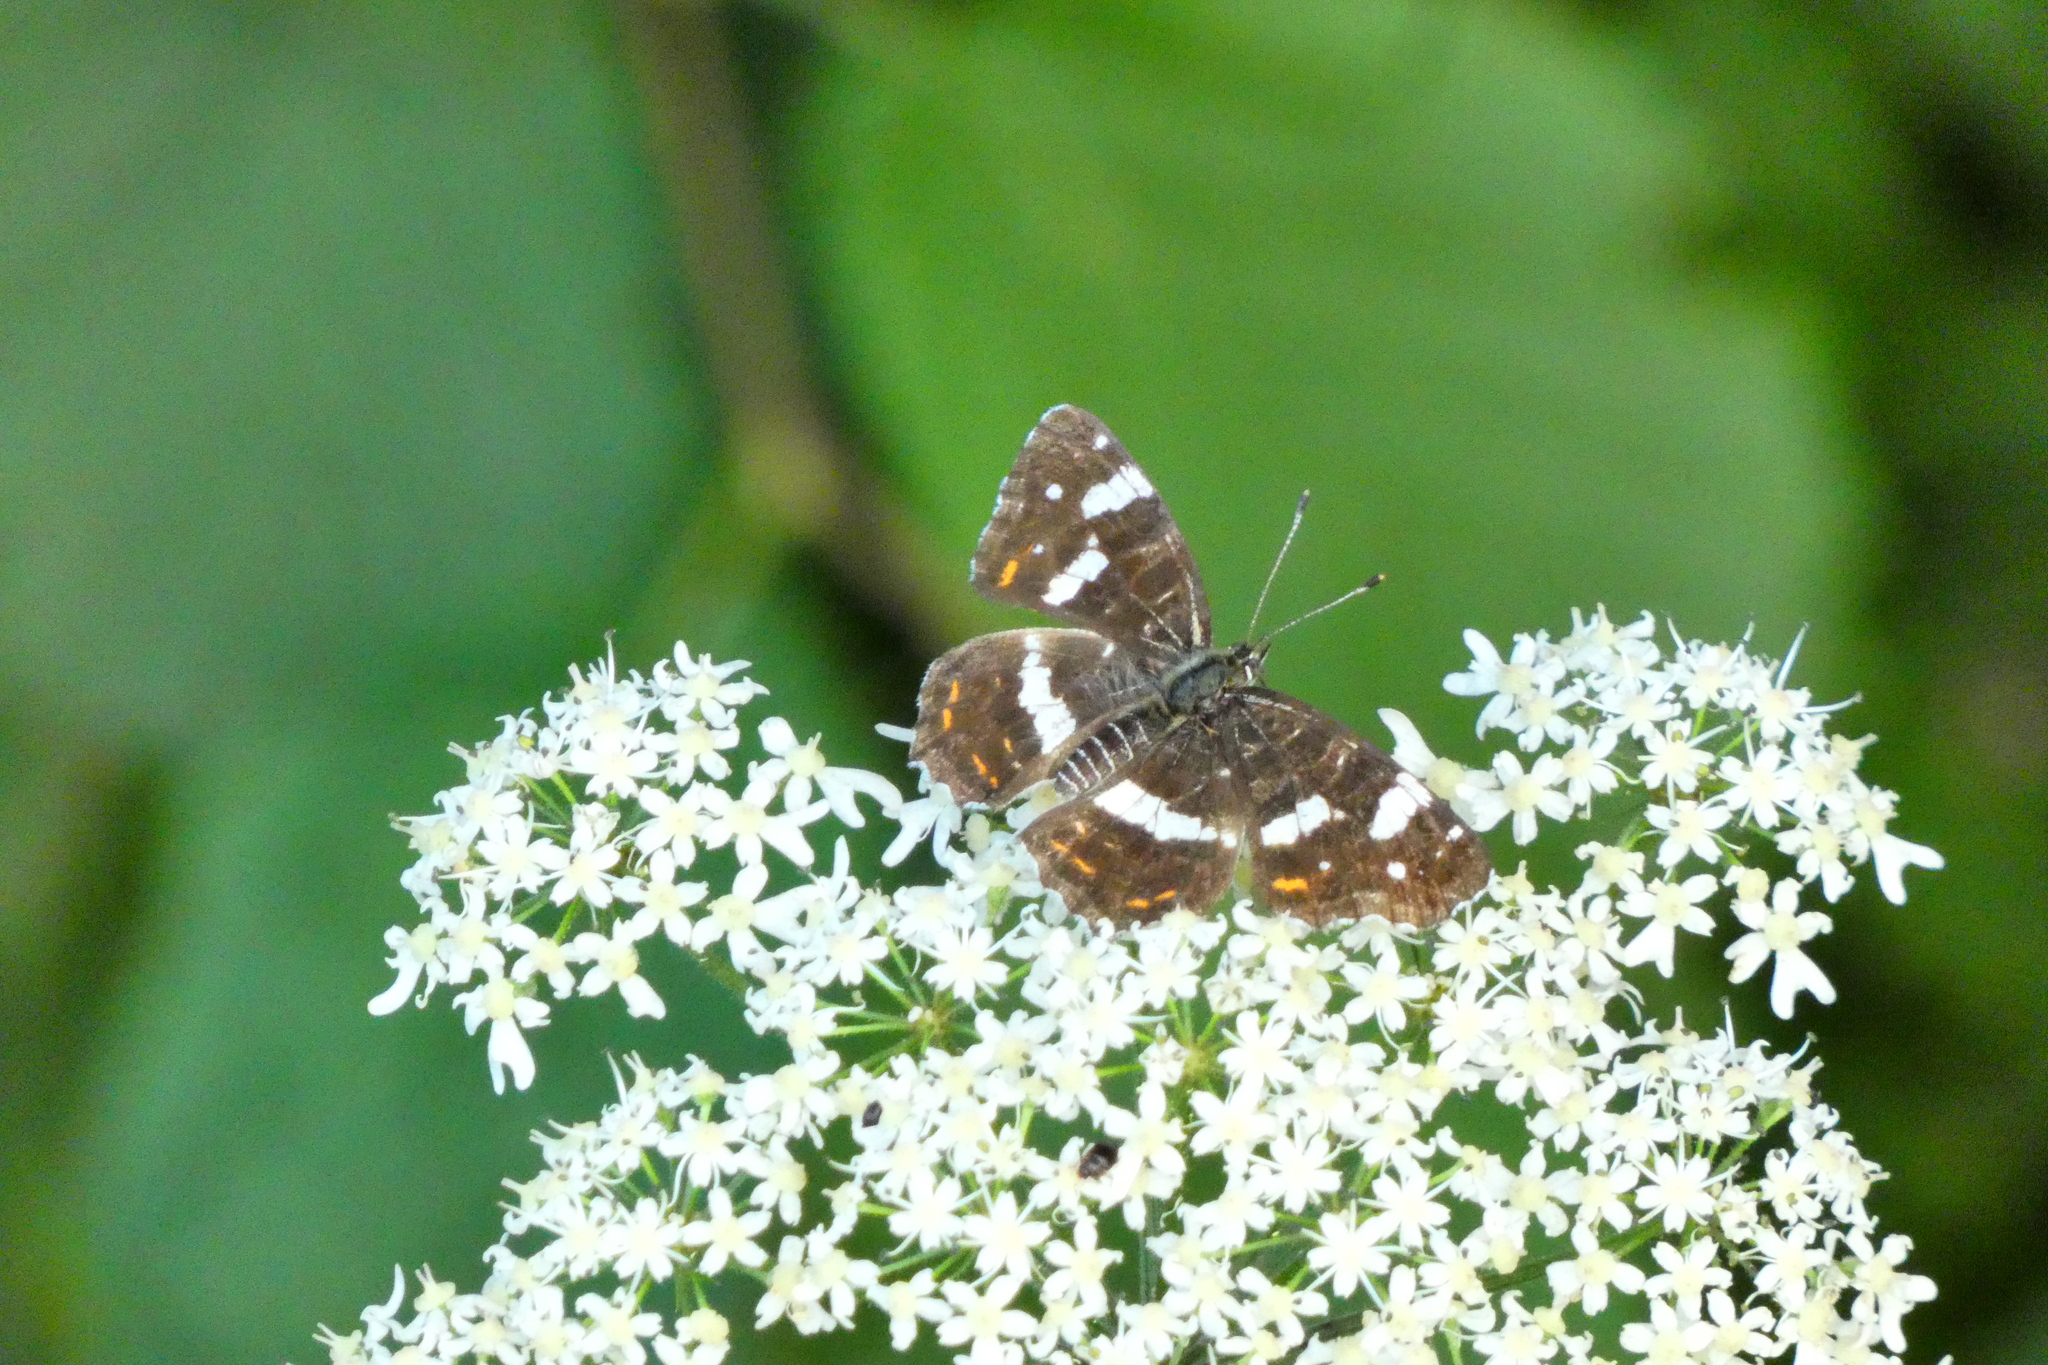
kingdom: Animalia
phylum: Arthropoda
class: Insecta
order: Lepidoptera
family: Nymphalidae
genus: Araschnia
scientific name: Araschnia levana
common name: Map butterfly
